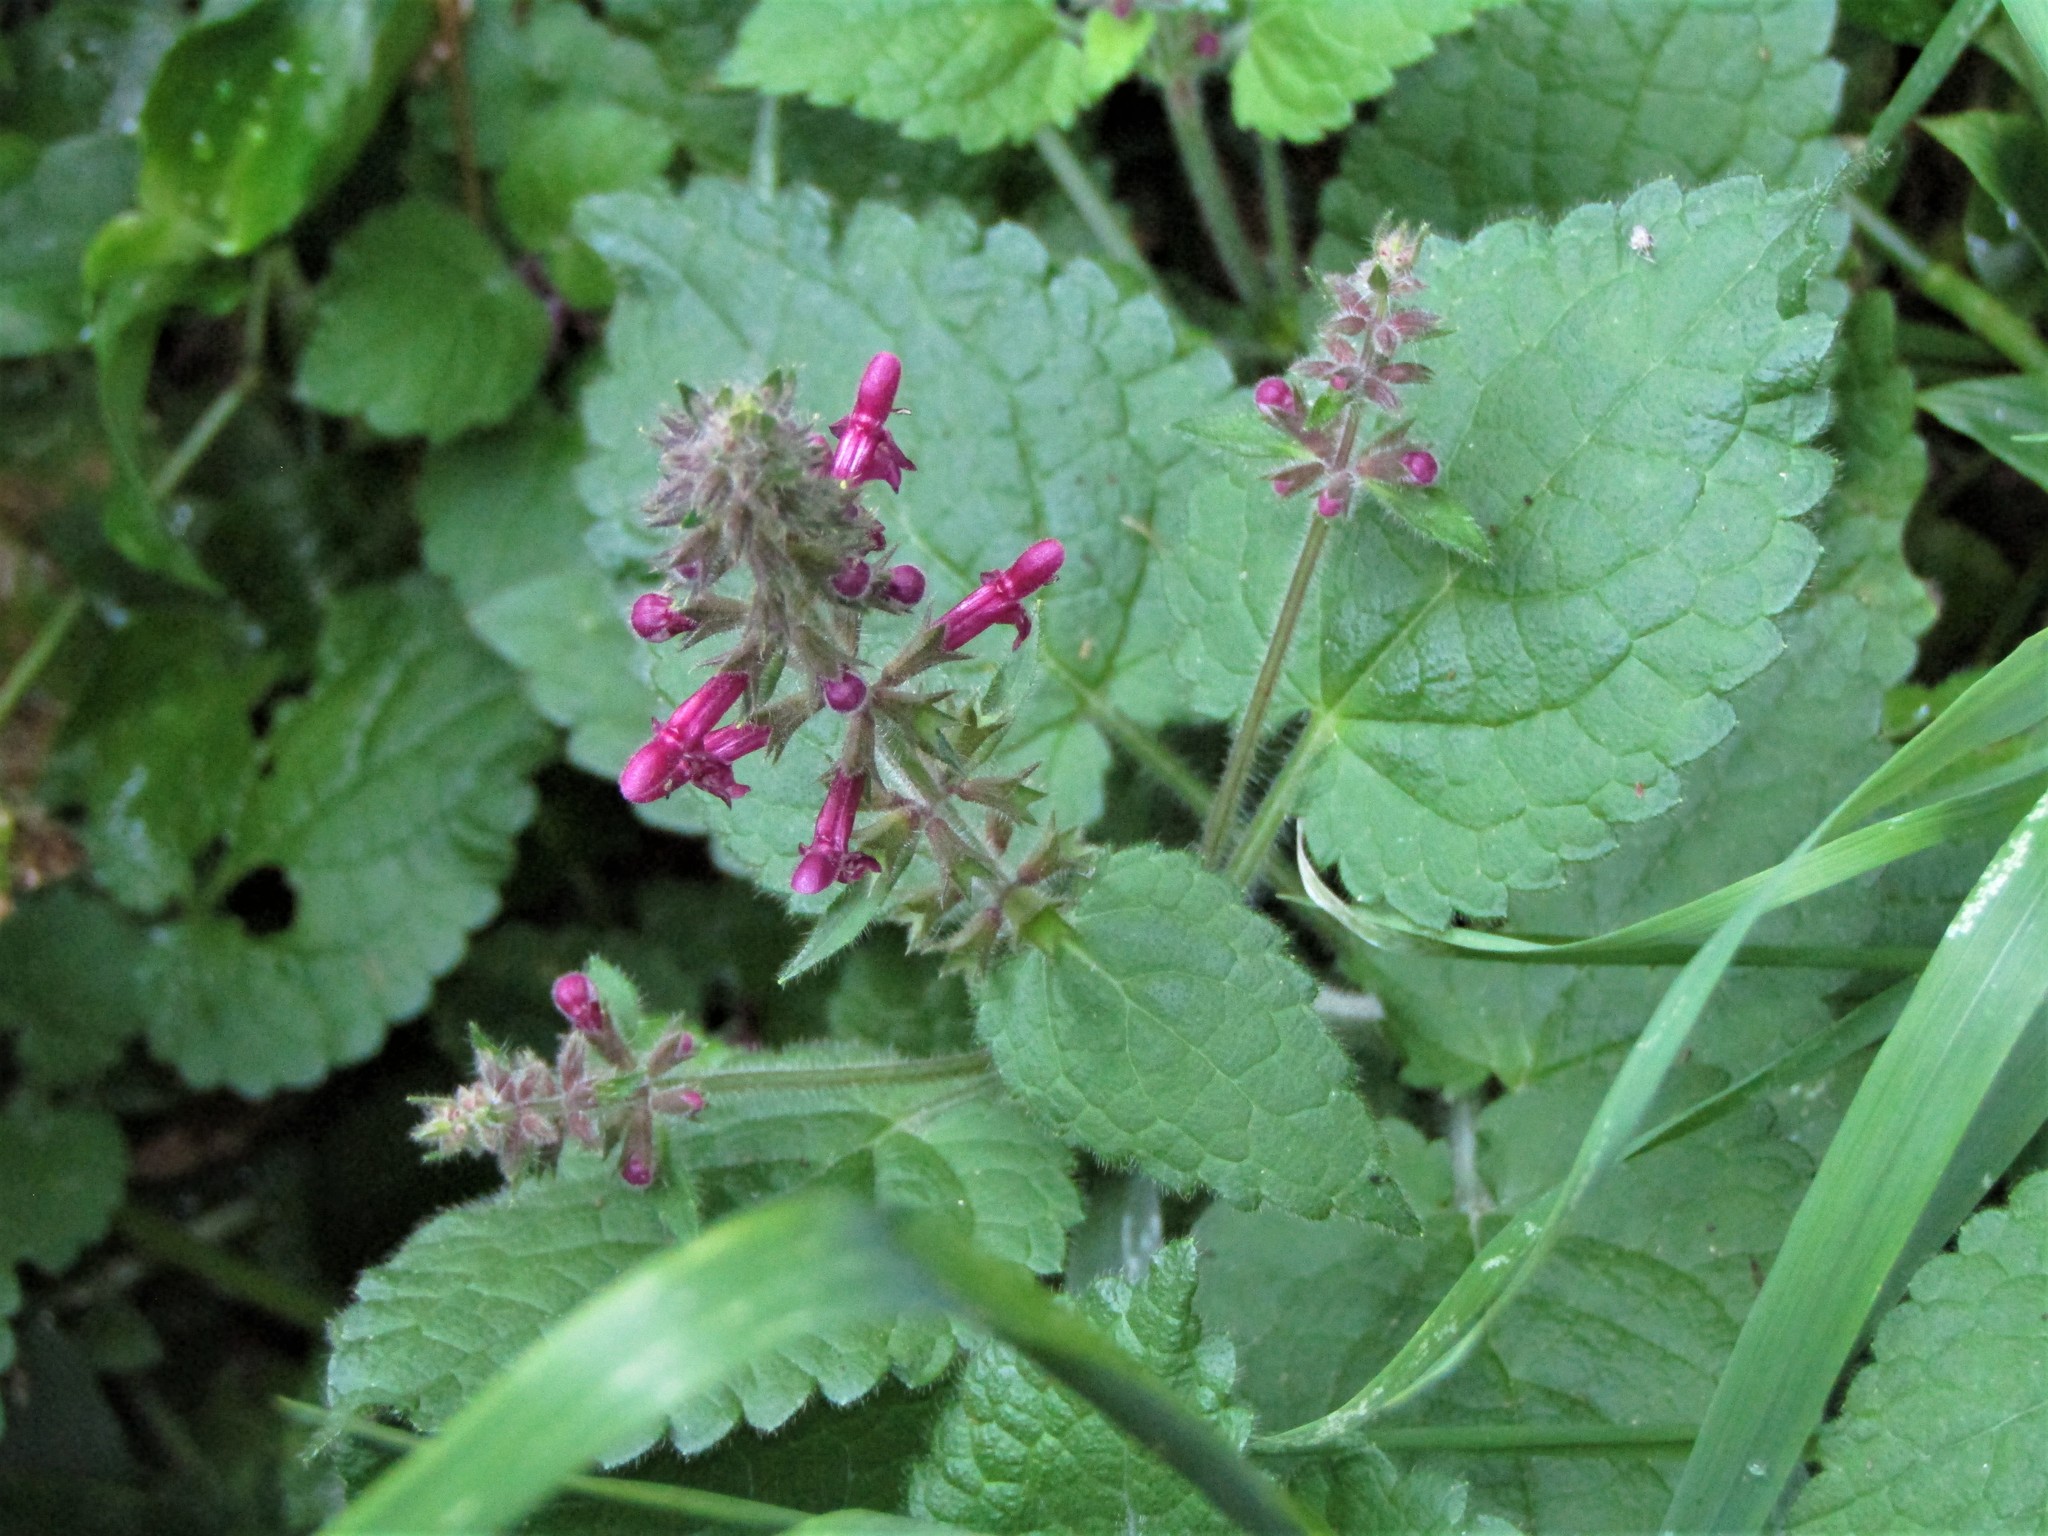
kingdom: Plantae
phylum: Tracheophyta
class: Magnoliopsida
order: Lamiales
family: Lamiaceae
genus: Stachys
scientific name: Stachys sylvatica
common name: Hedge woundwort
